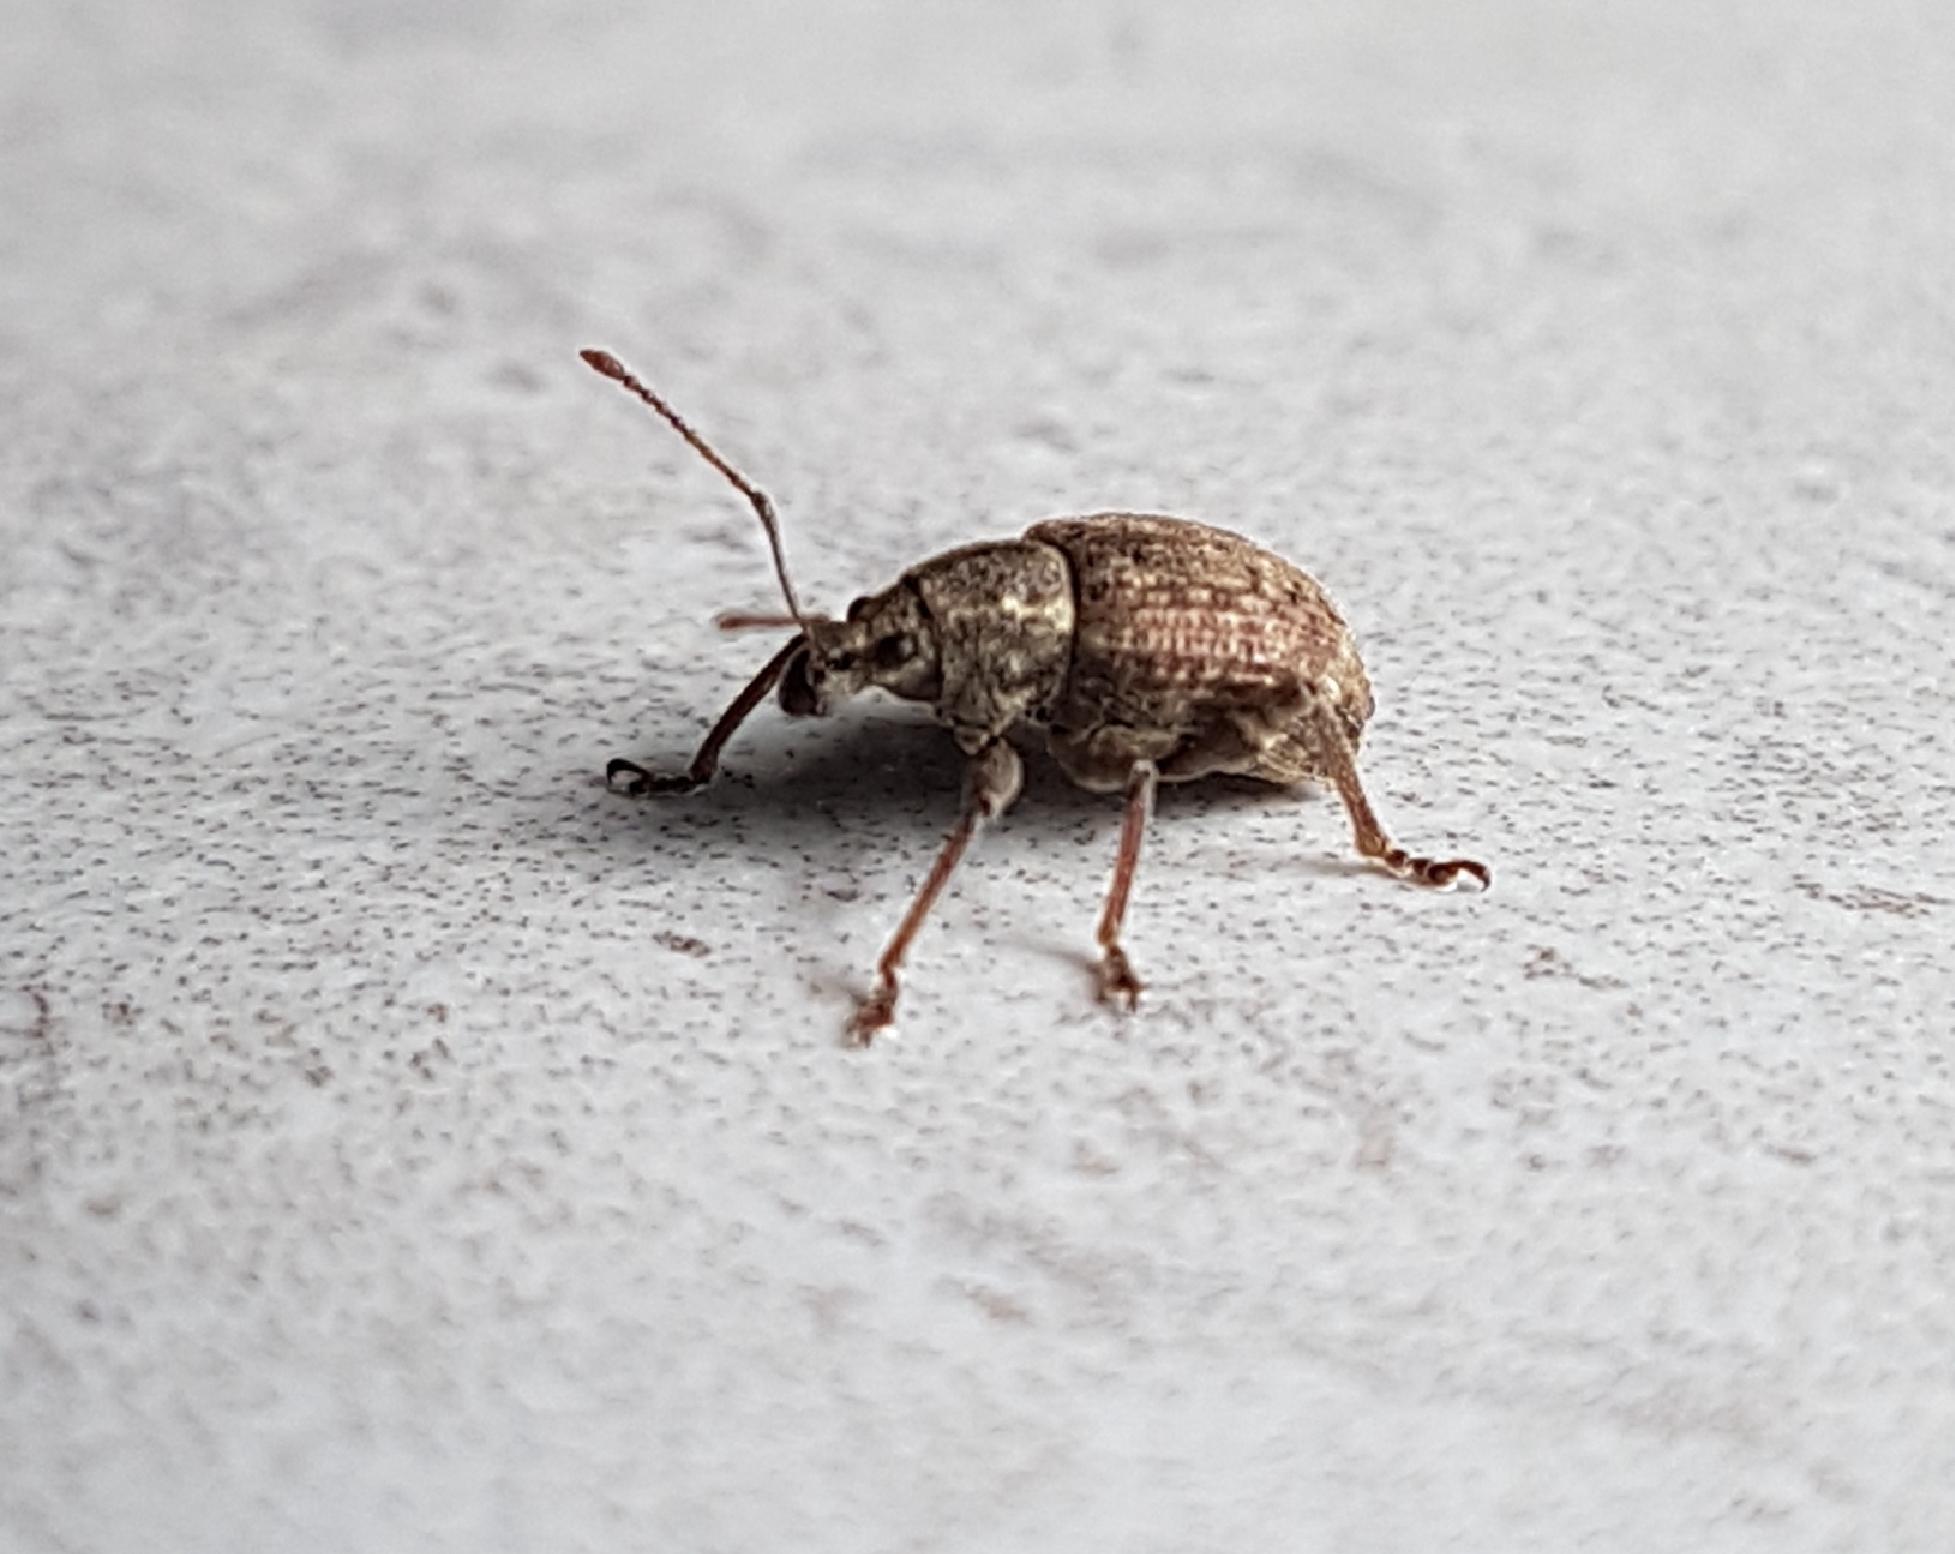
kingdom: Animalia
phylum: Arthropoda
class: Insecta
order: Coleoptera
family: Curculionidae
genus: Phlyctinus
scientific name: Phlyctinus callosus
